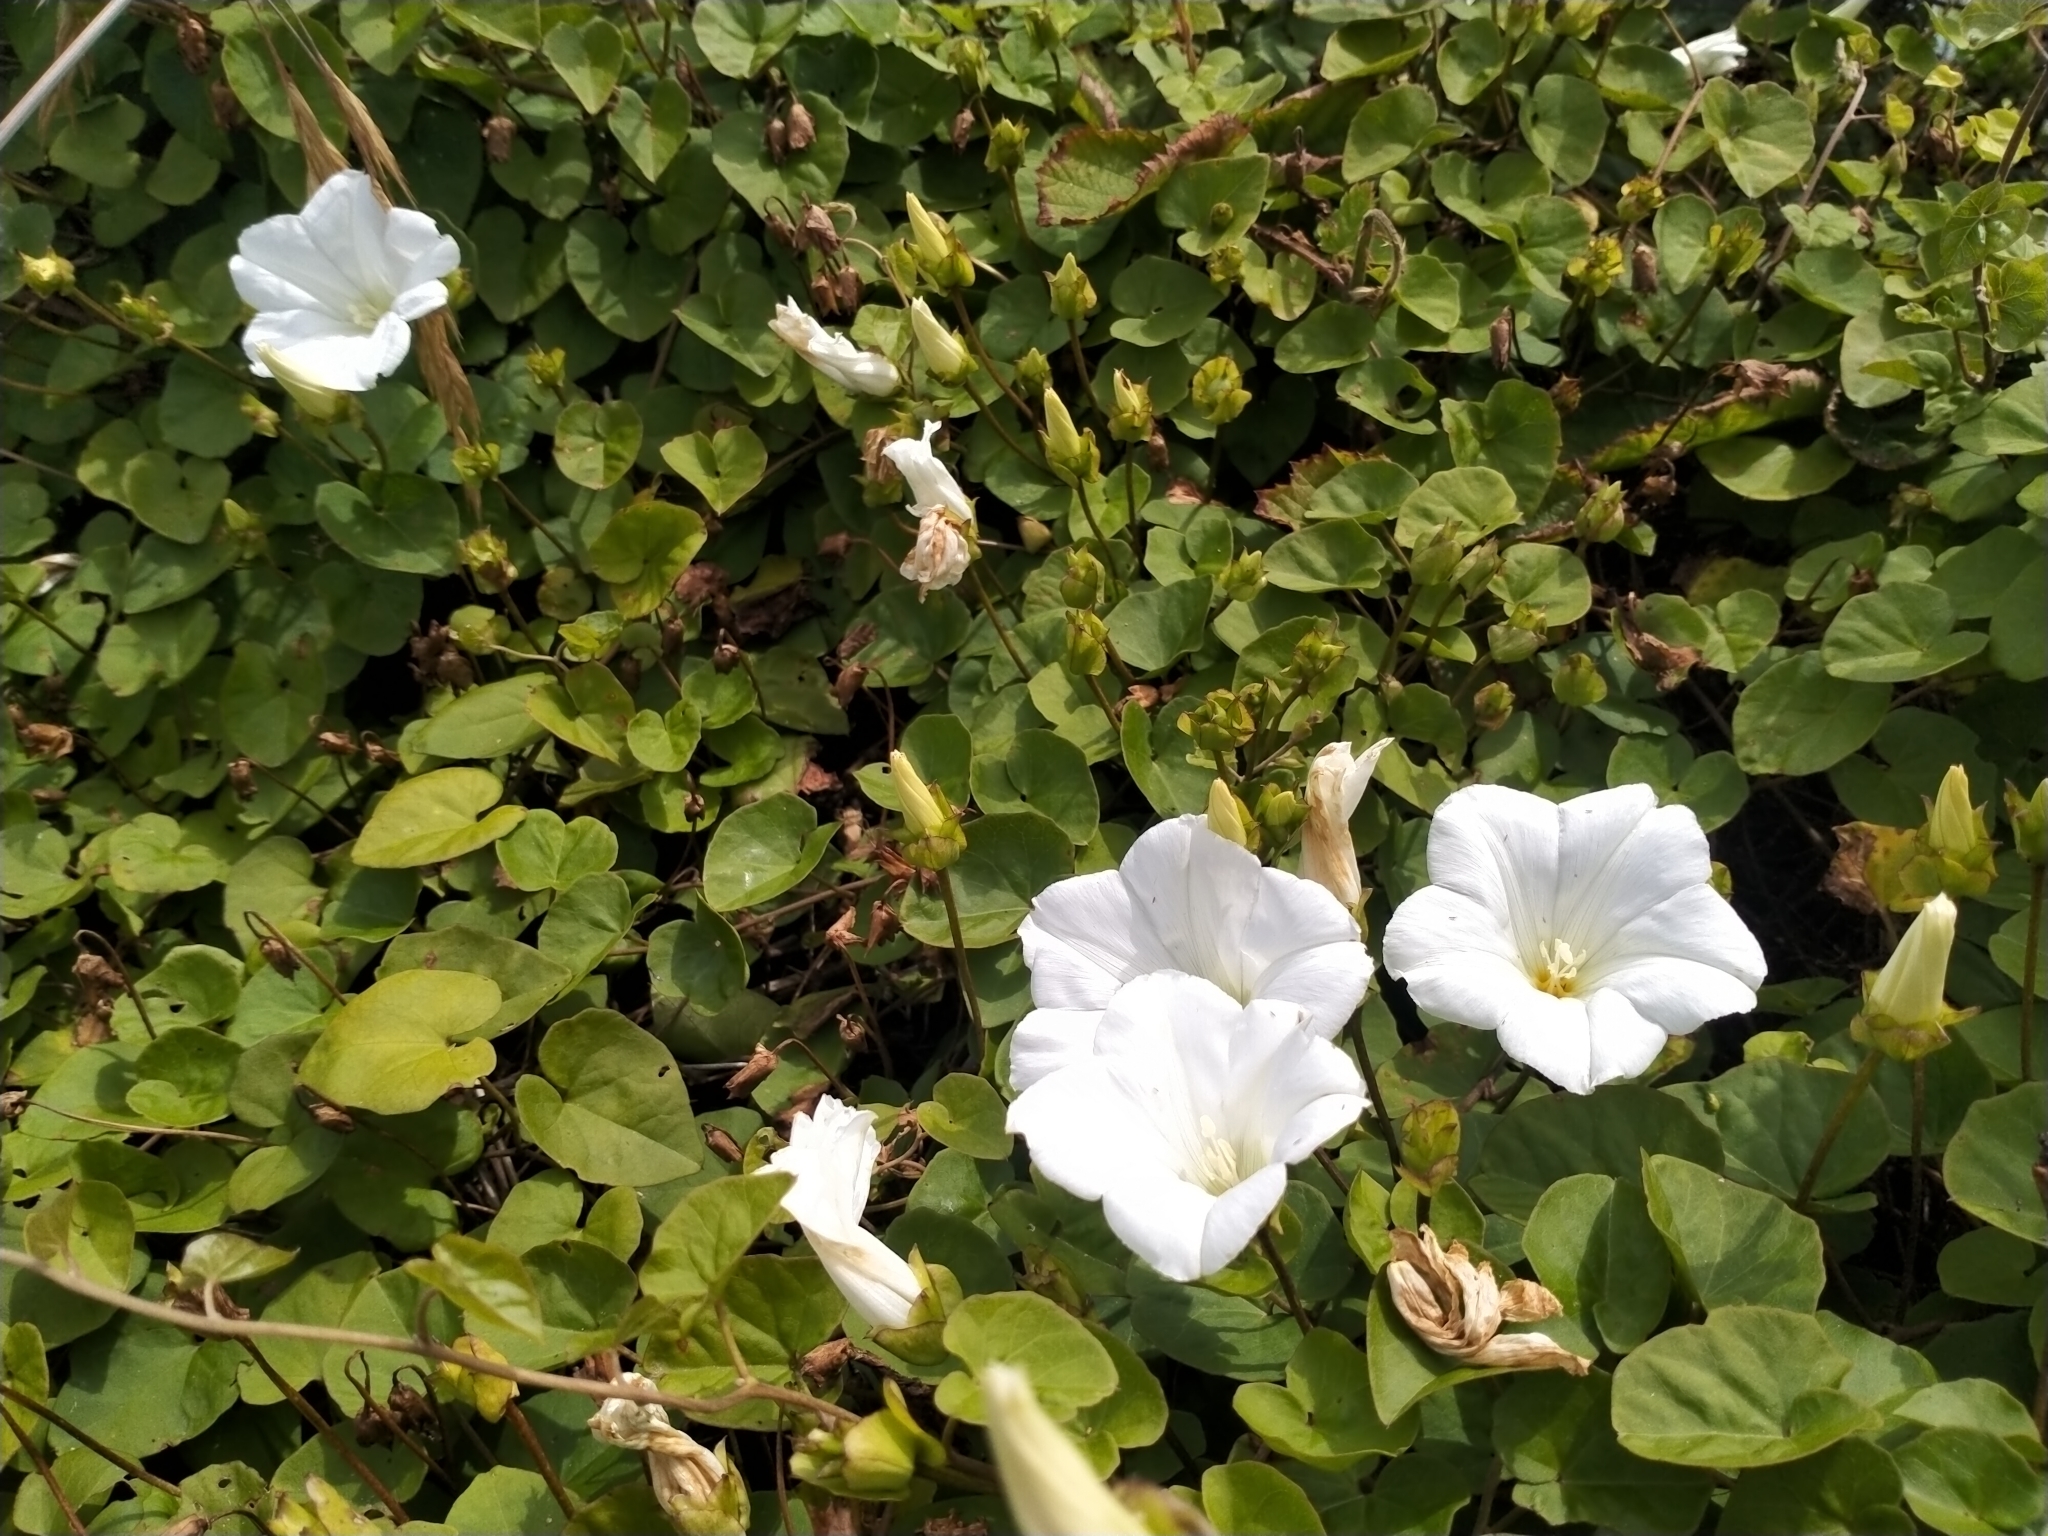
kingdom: Plantae
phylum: Tracheophyta
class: Magnoliopsida
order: Solanales
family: Convolvulaceae
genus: Calystegia
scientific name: Calystegia tuguriorum
